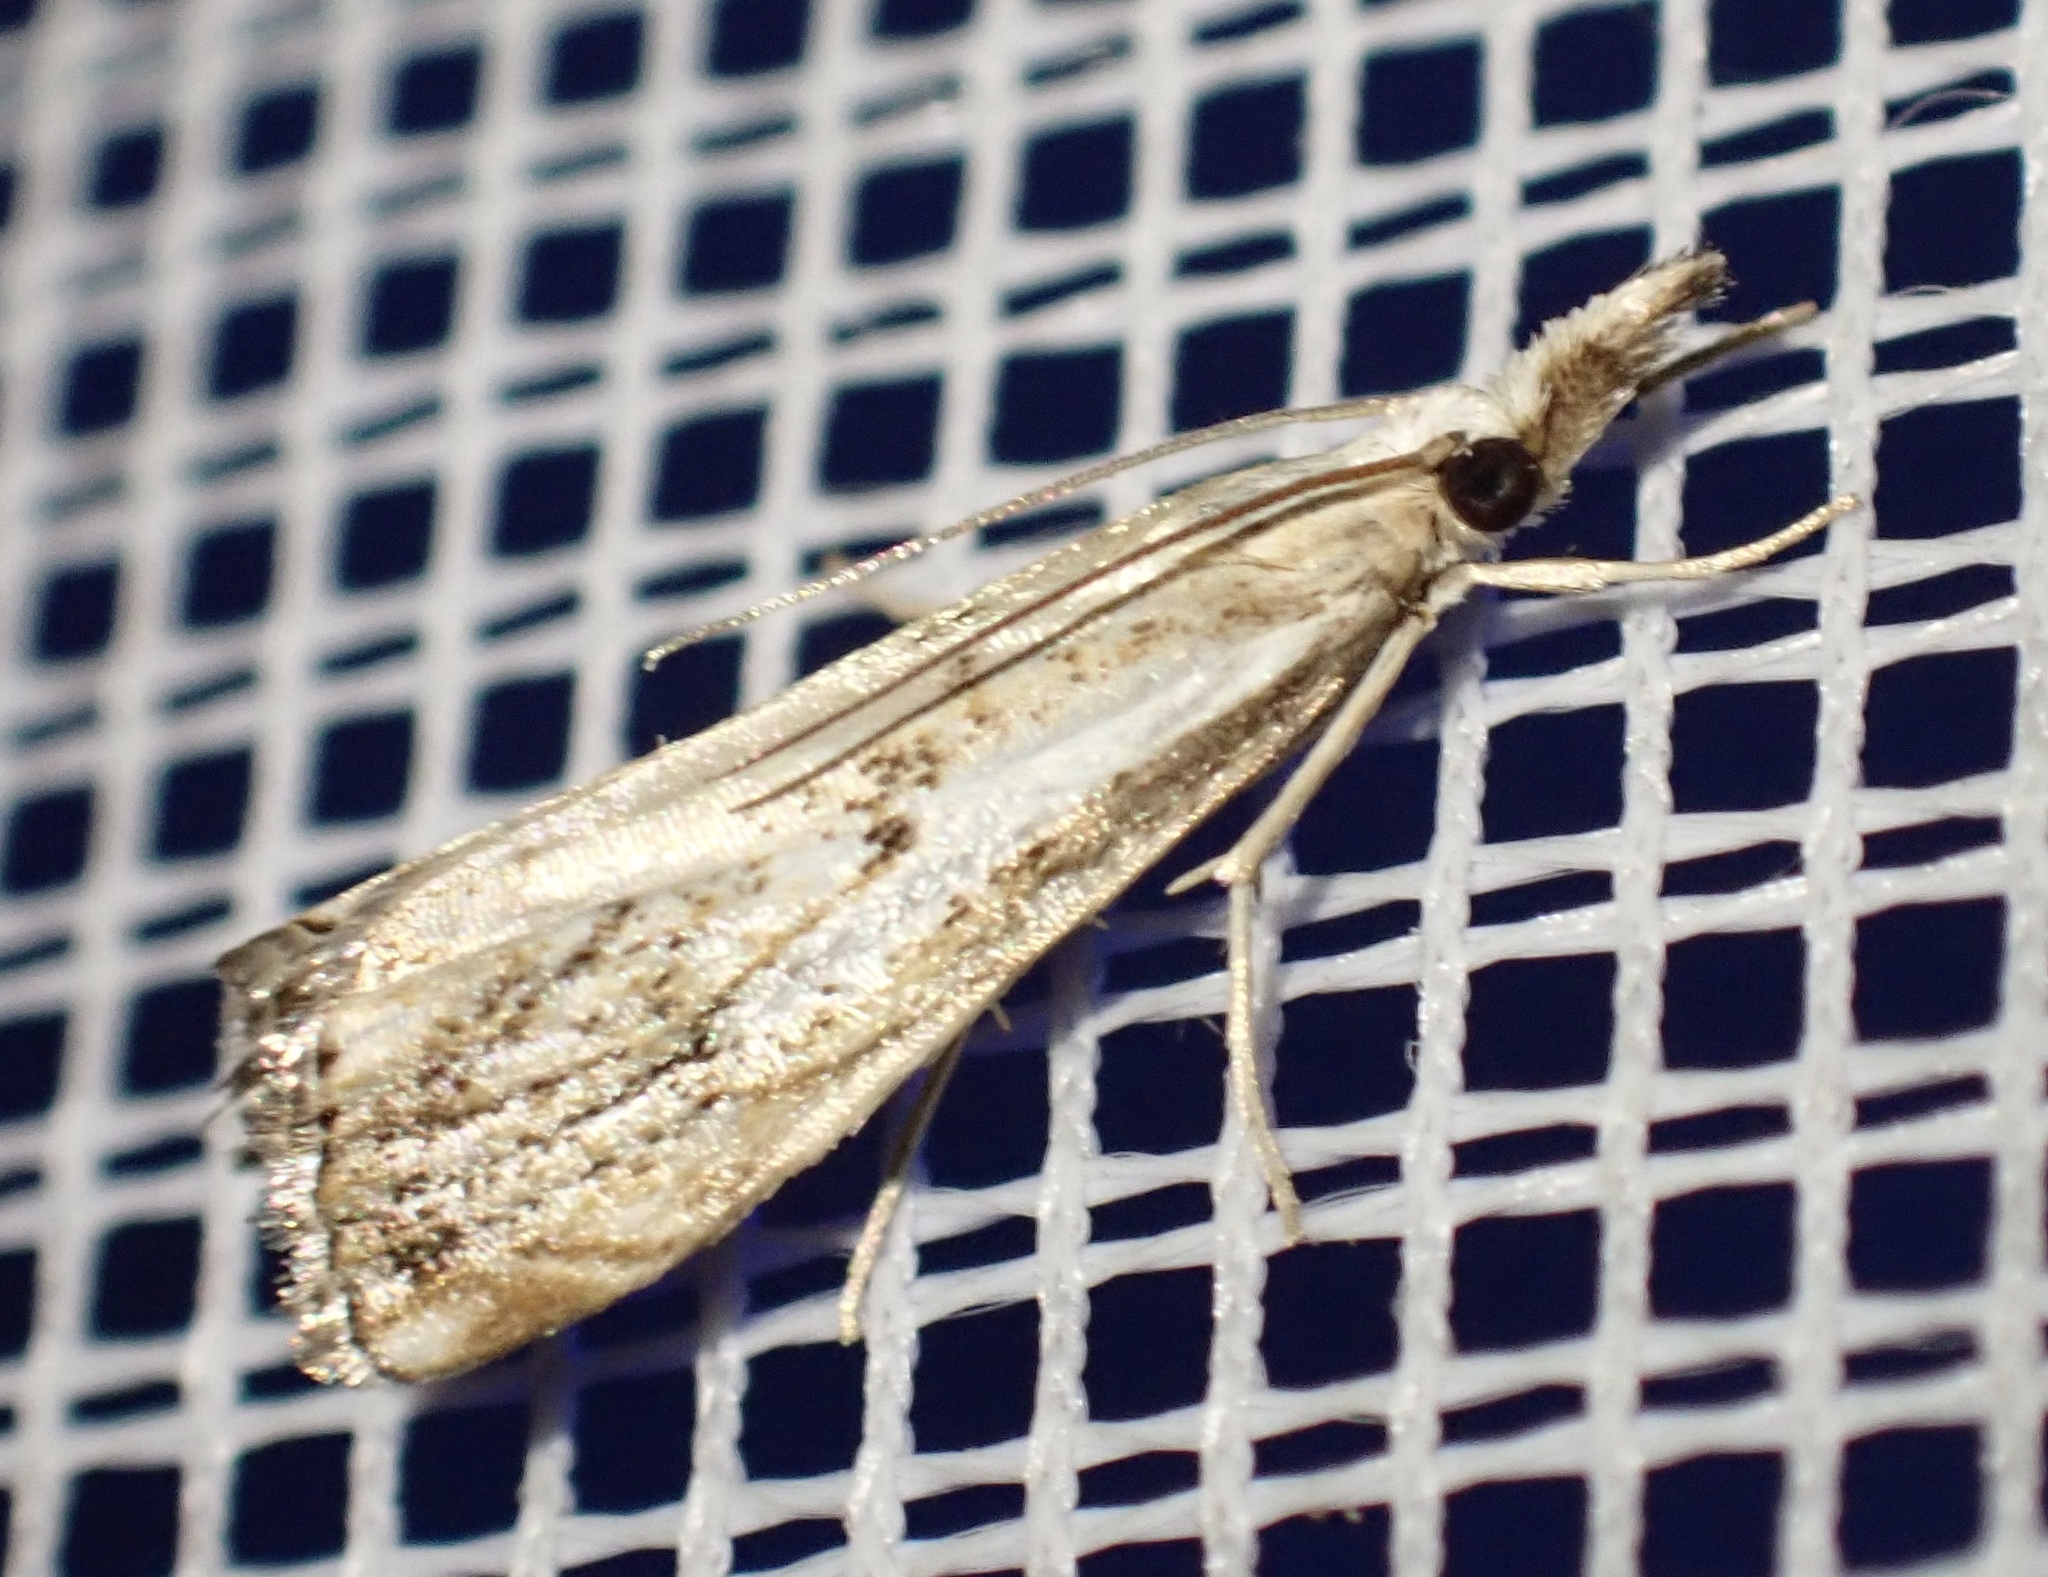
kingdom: Animalia
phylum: Arthropoda
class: Insecta
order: Lepidoptera
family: Crambidae
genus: Catoptria
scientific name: Catoptria falsella
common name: Chequered grass-veneer
